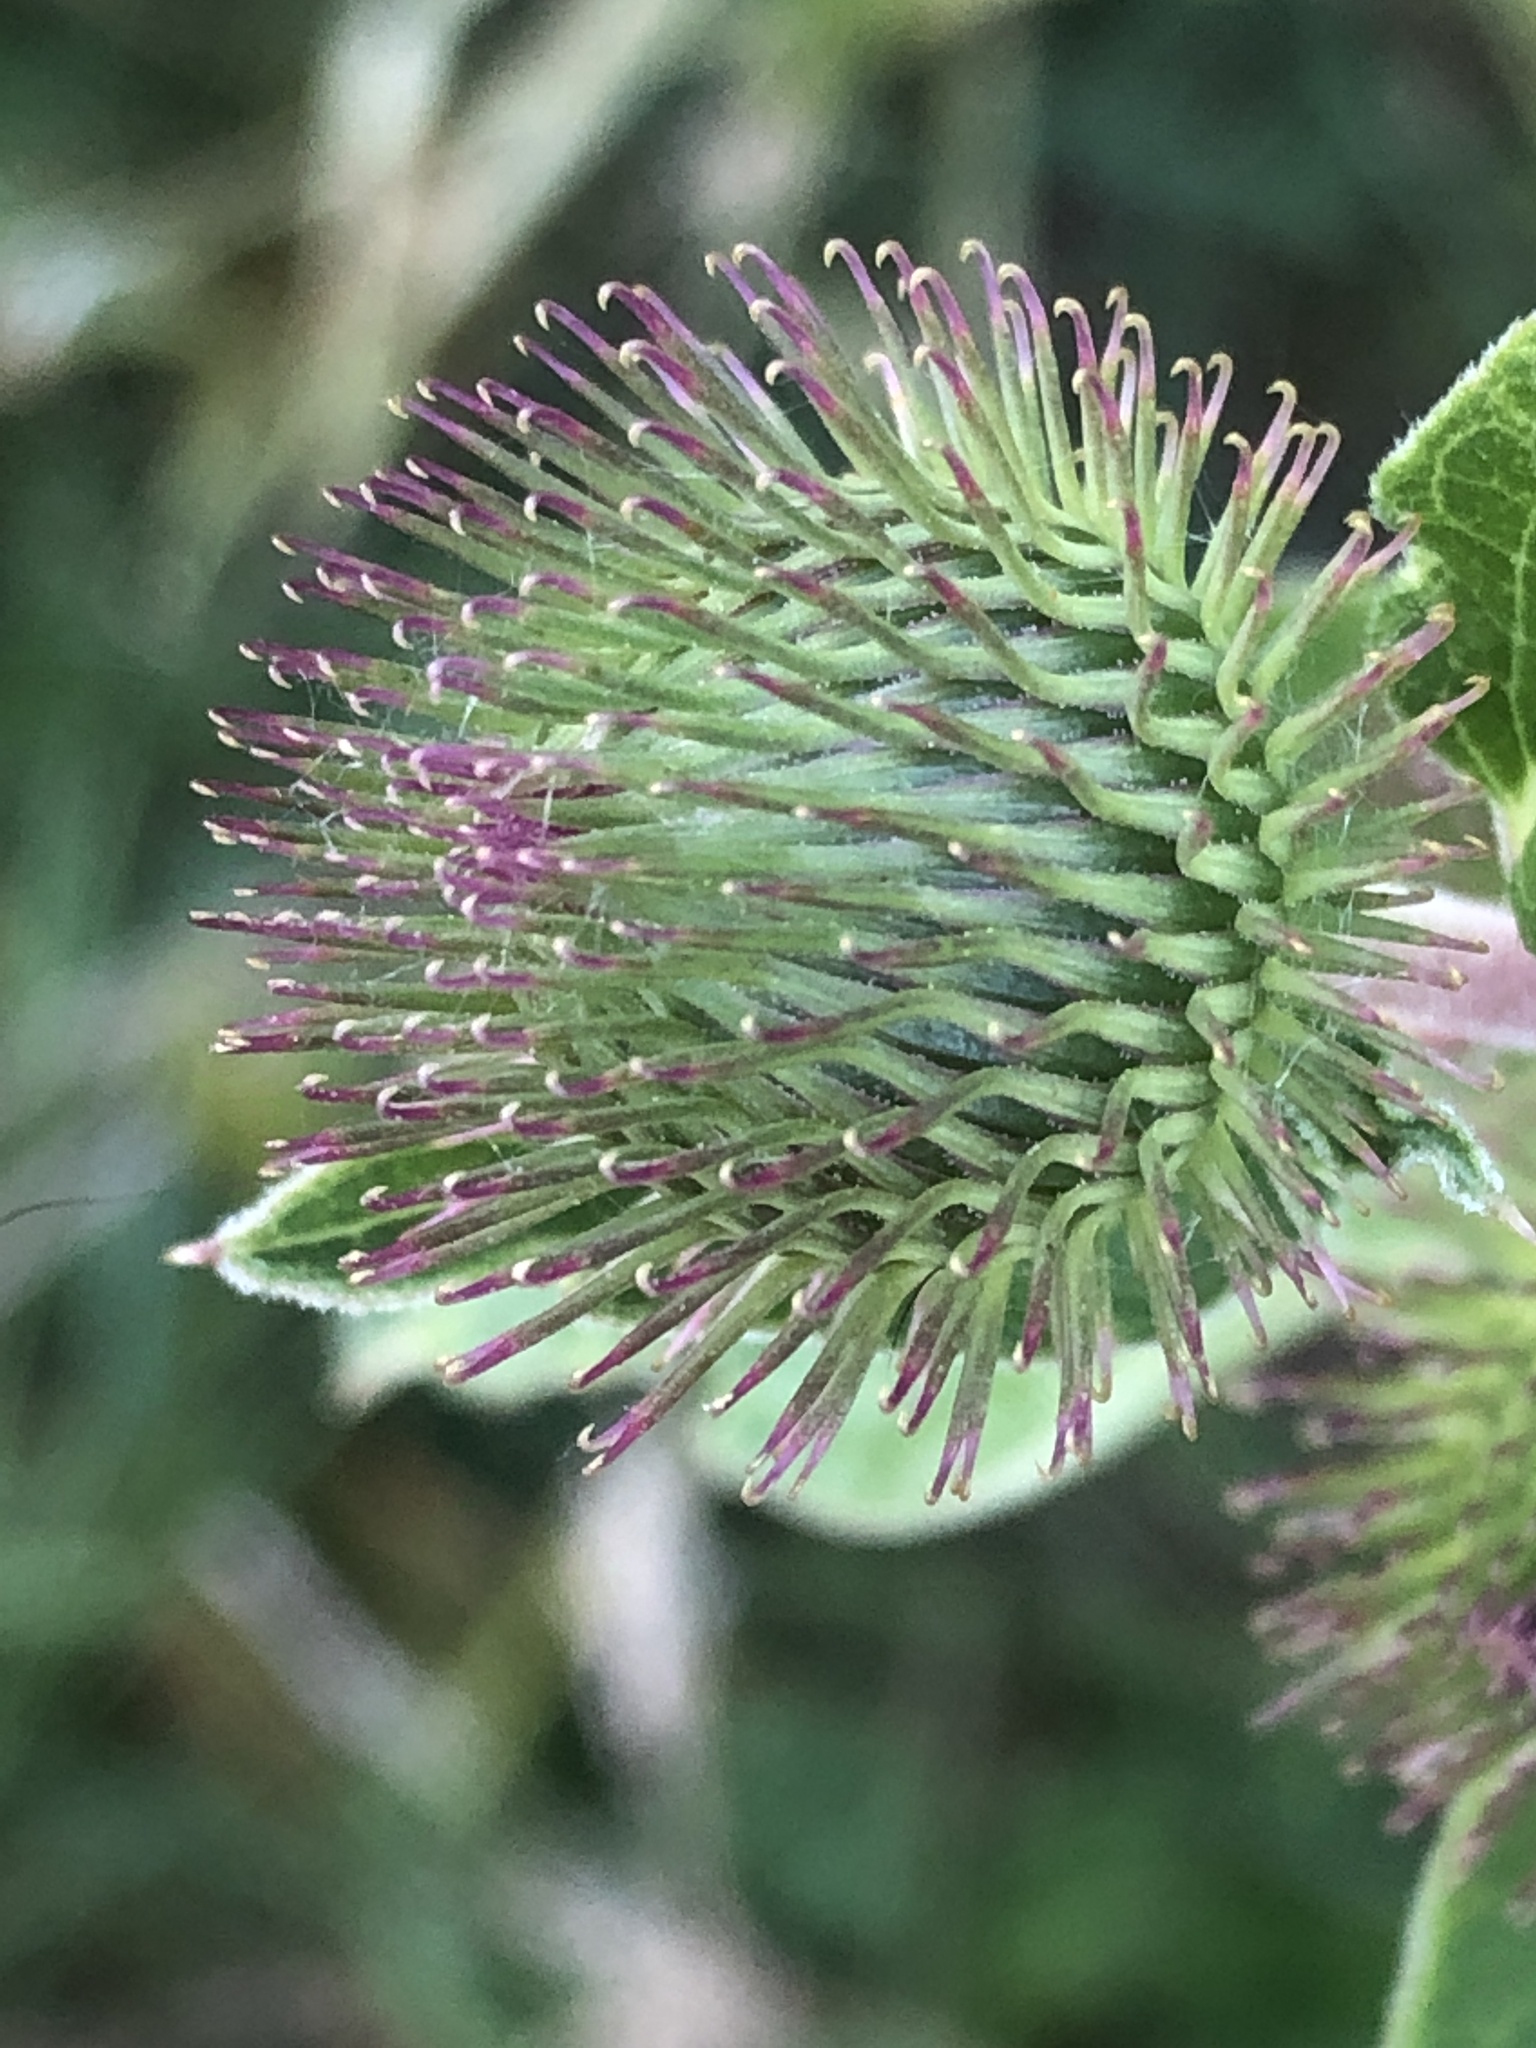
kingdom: Plantae
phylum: Tracheophyta
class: Magnoliopsida
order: Asterales
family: Asteraceae
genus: Arctium
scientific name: Arctium minus
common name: Lesser burdock
